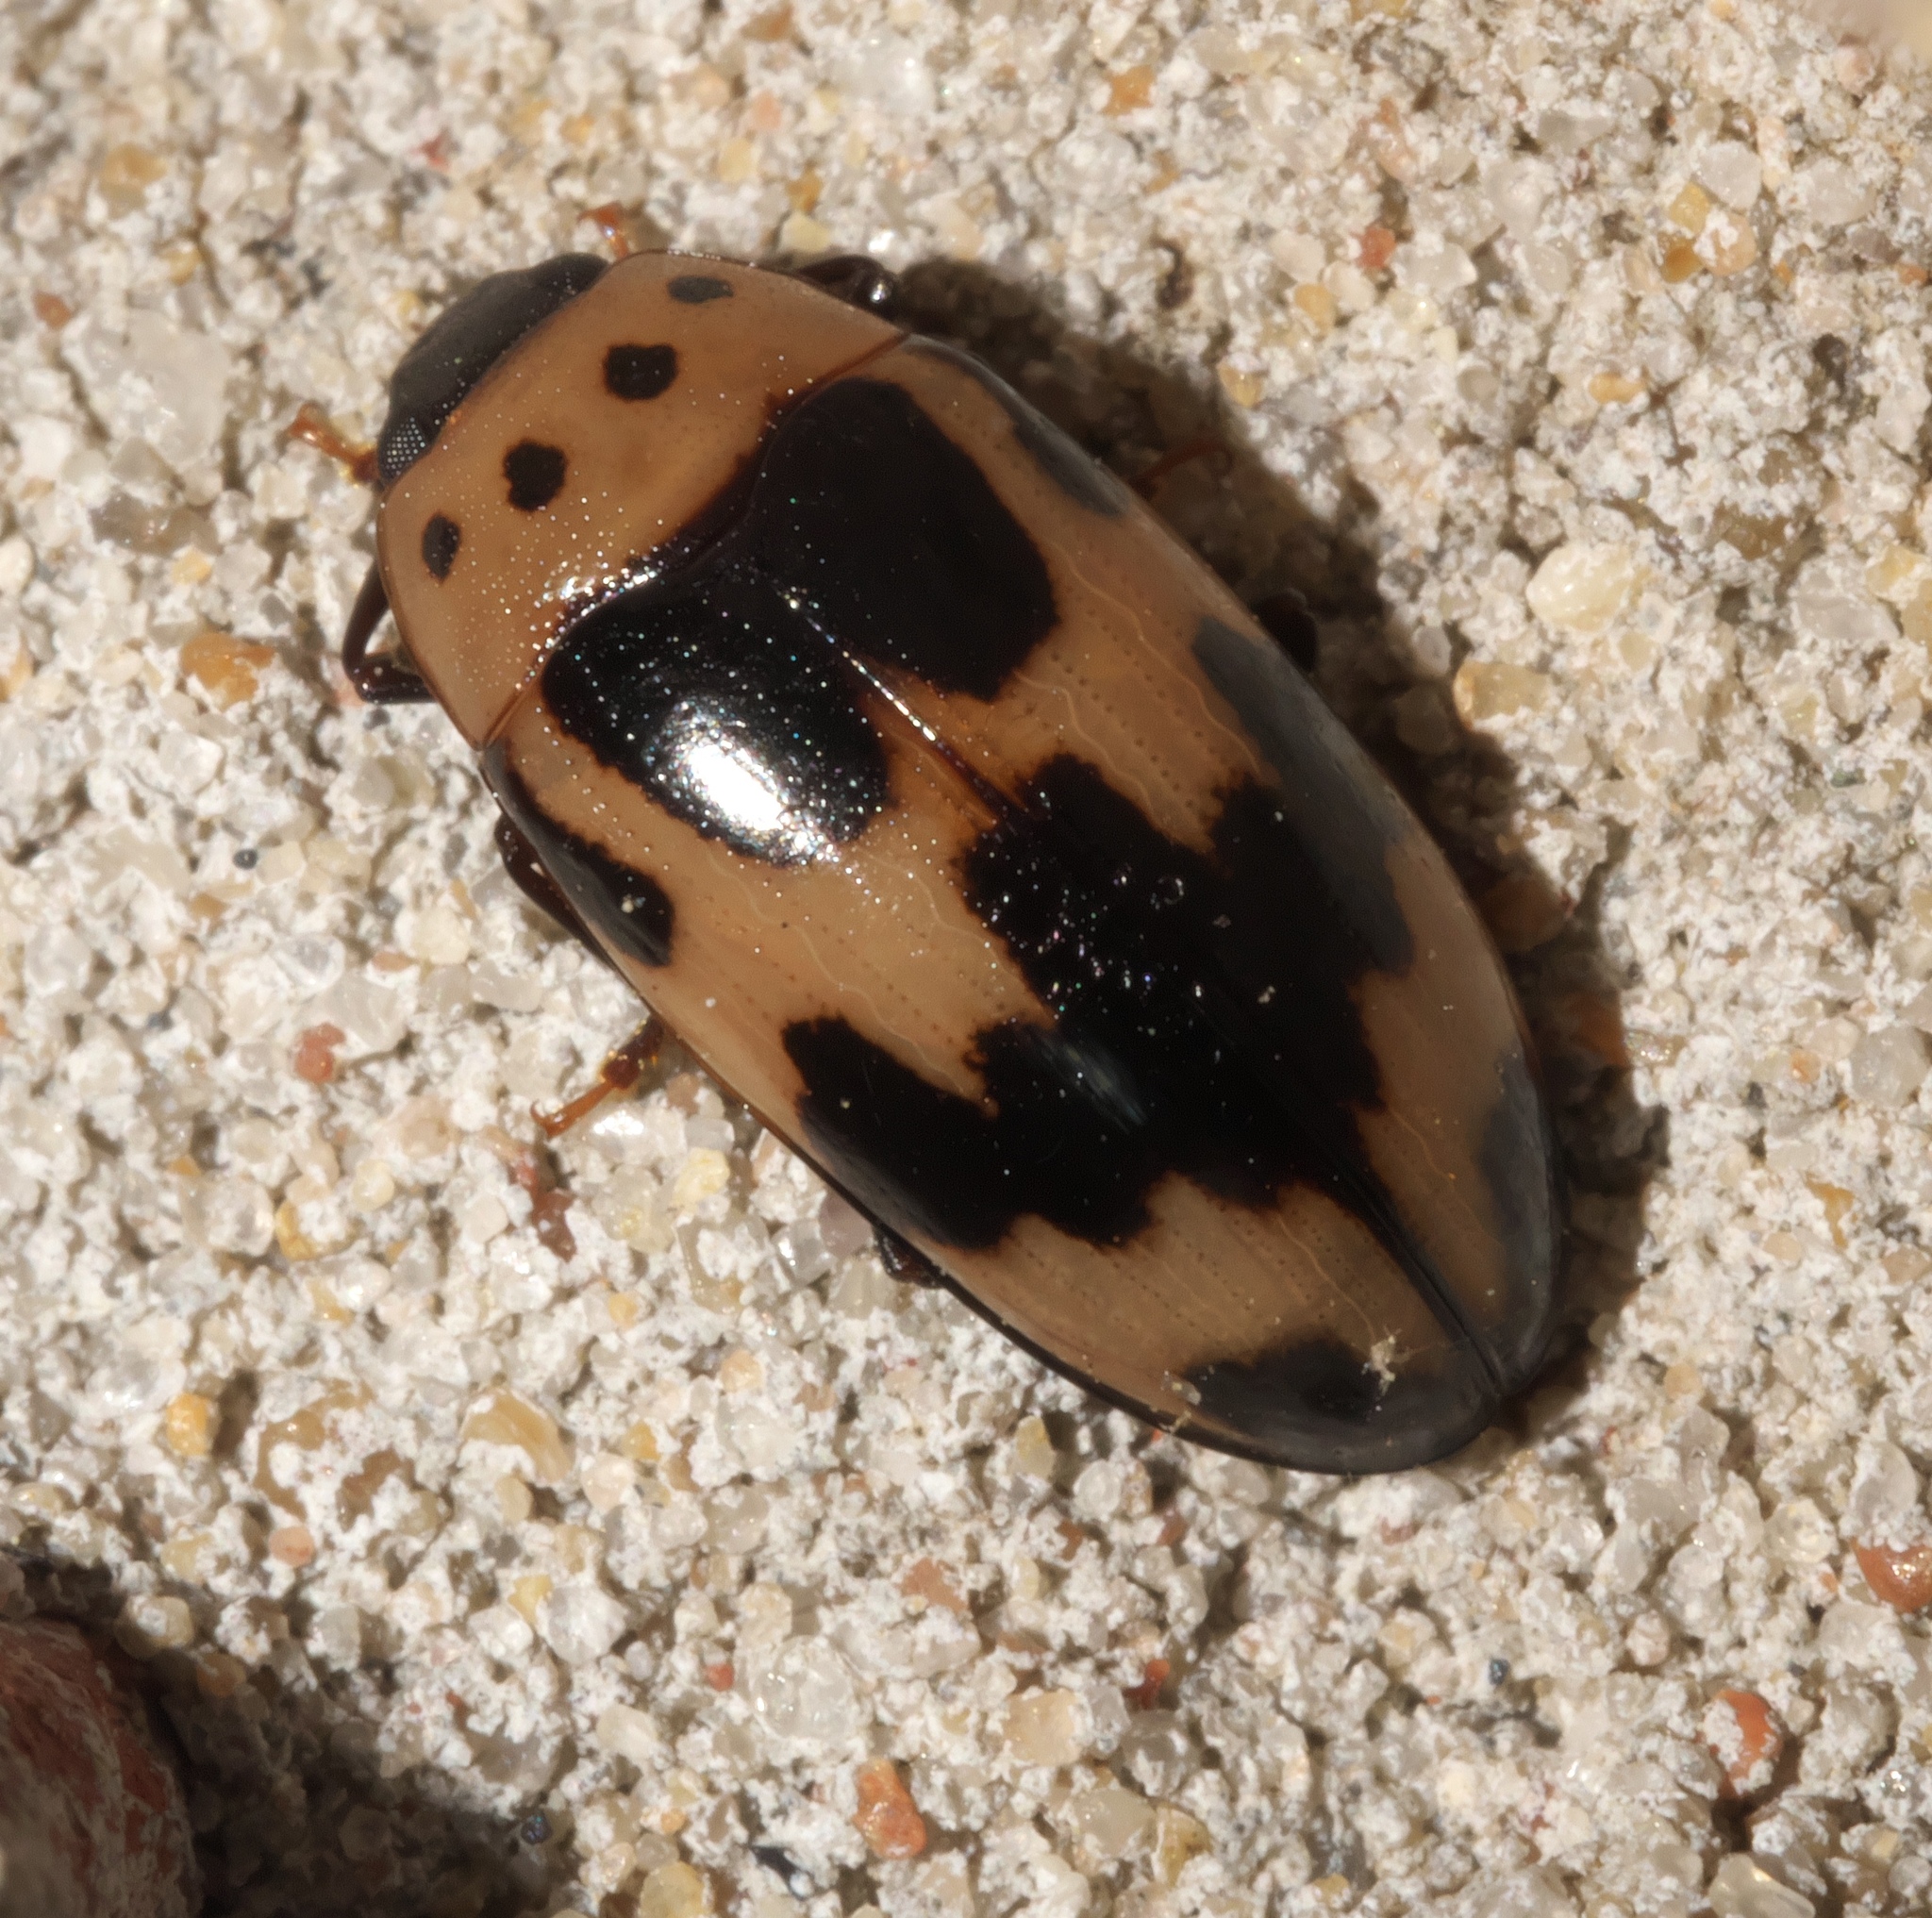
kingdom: Animalia
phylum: Arthropoda
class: Insecta
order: Coleoptera
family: Erotylidae
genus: Ischyrus
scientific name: Ischyrus quadripunctatus
